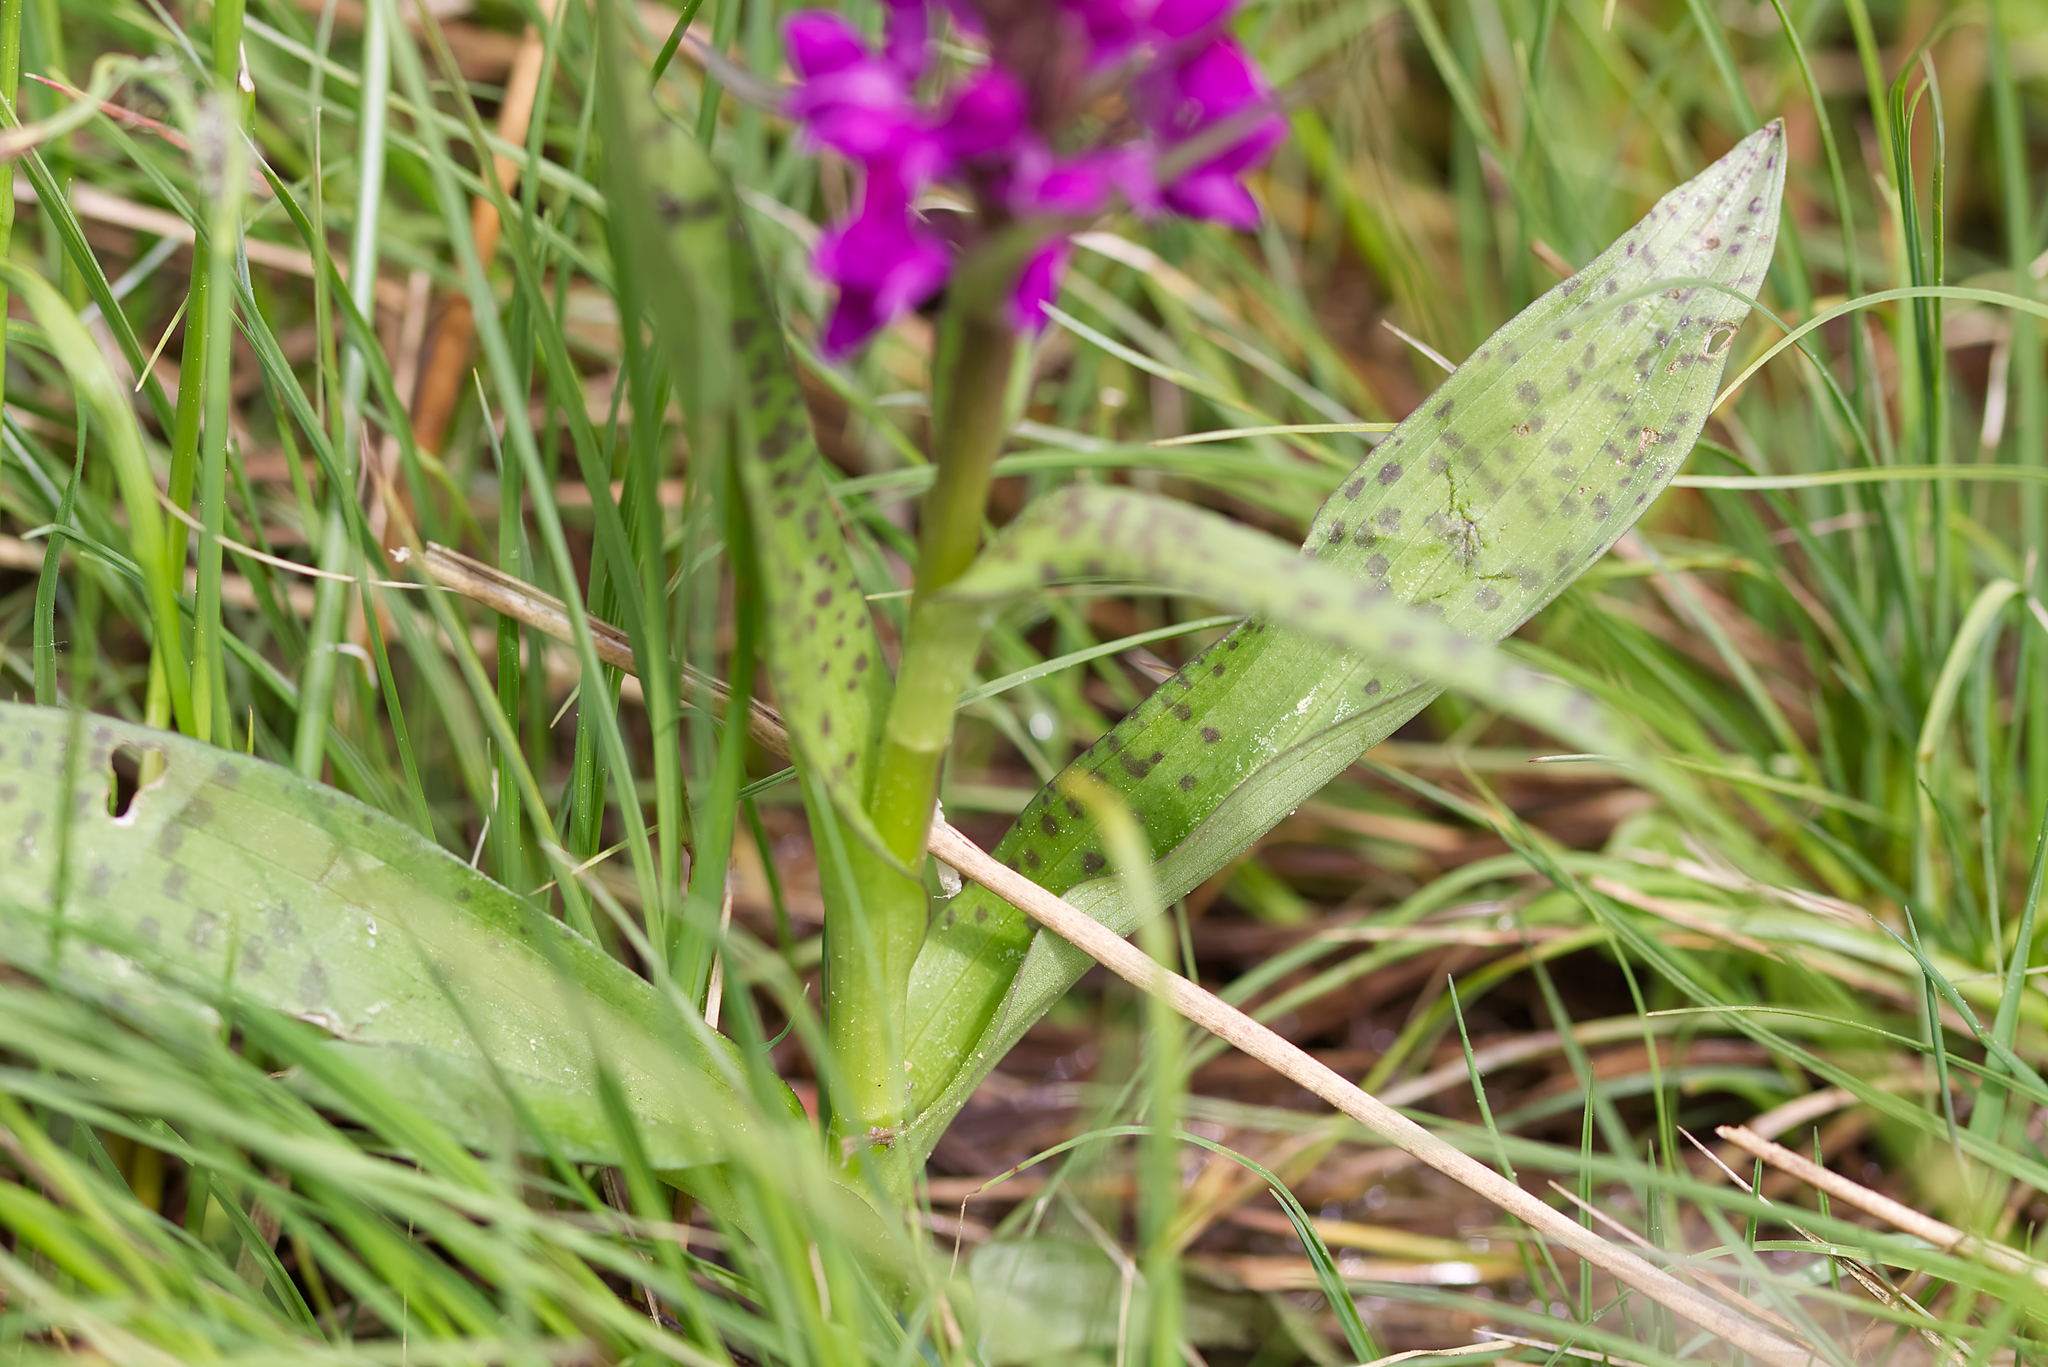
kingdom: Plantae
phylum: Tracheophyta
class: Liliopsida
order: Asparagales
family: Orchidaceae
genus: Dactylorhiza
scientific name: Dactylorhiza majalis
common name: Marsh orchid
